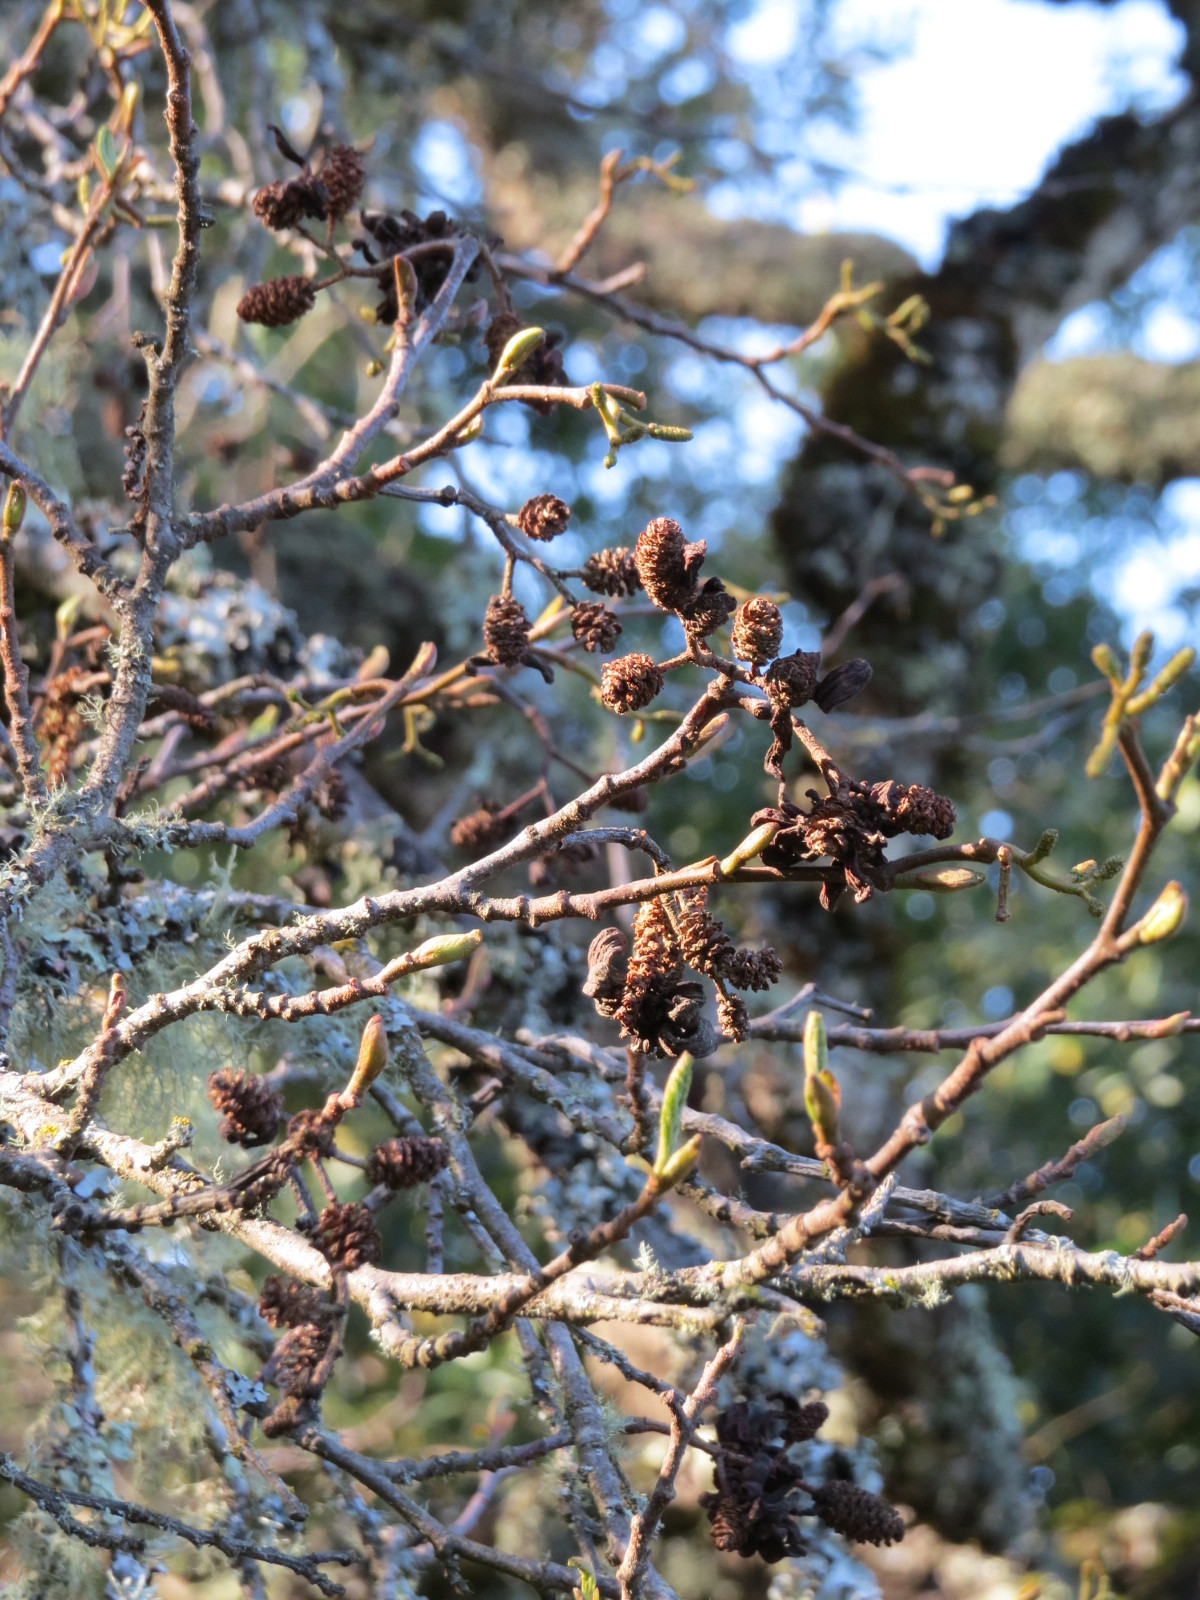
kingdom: Fungi
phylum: Ascomycota
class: Taphrinomycetes
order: Taphrinales
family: Taphrinaceae
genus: Taphrina
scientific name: Taphrina occidentalis
